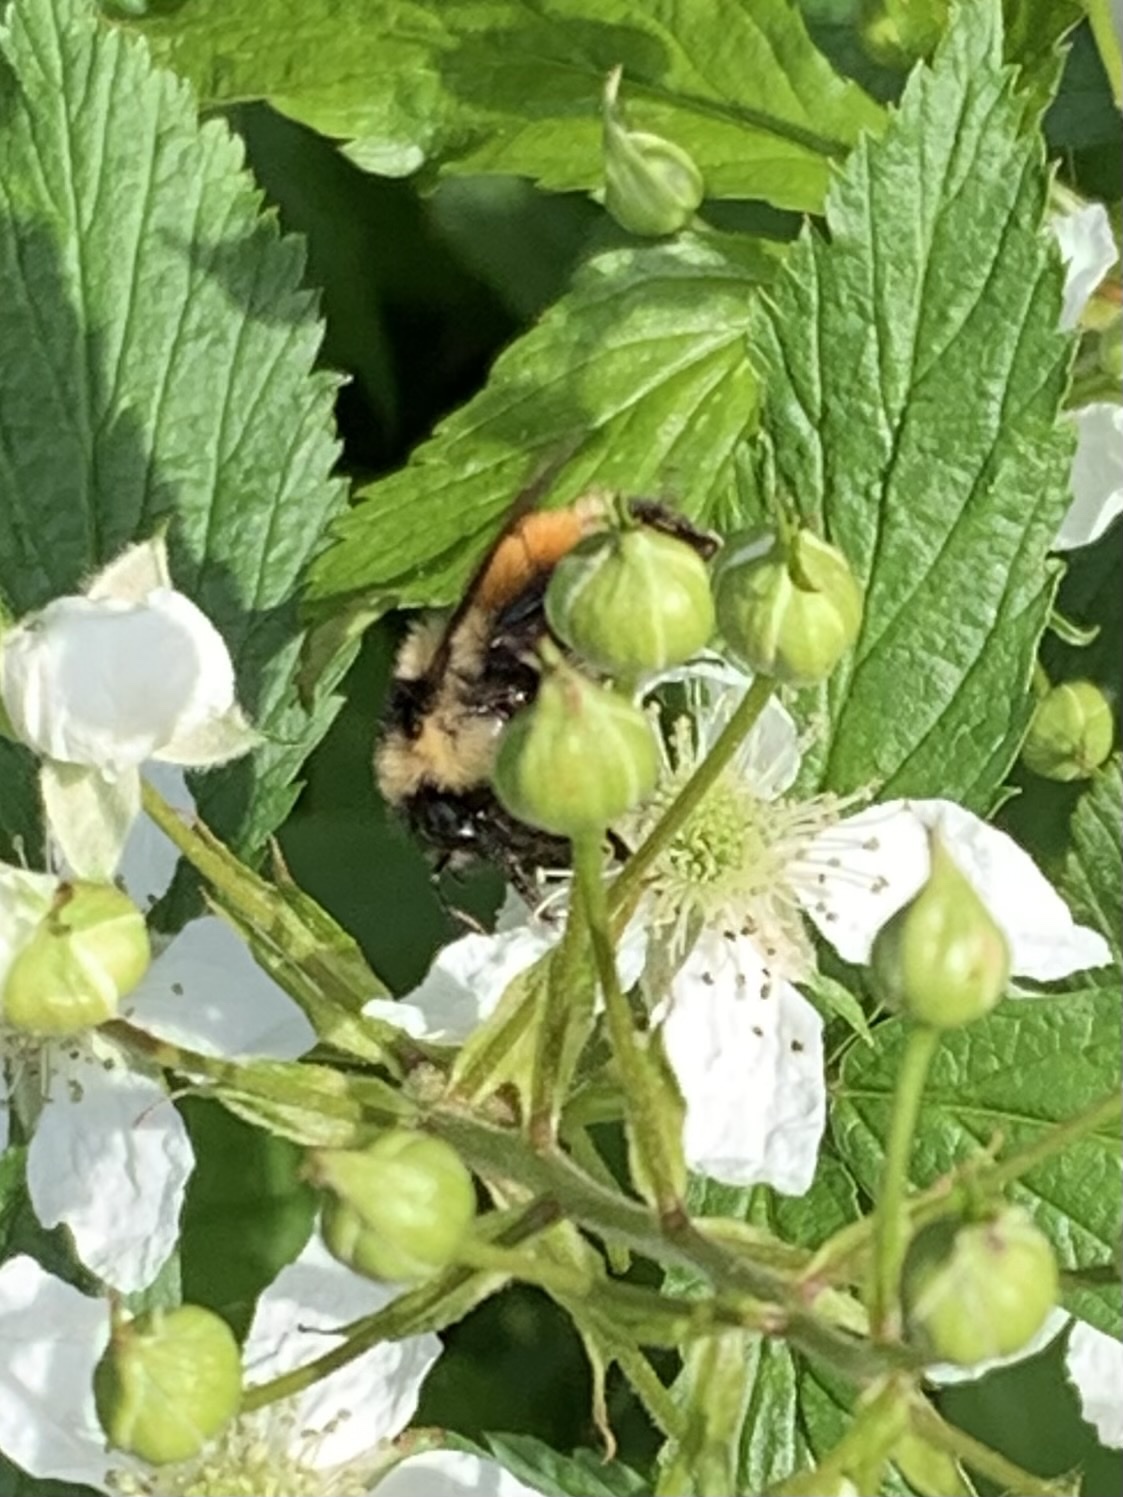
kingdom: Animalia
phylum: Arthropoda
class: Insecta
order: Hymenoptera
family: Apidae
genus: Bombus
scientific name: Bombus ternarius
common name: Tri-colored bumble bee
